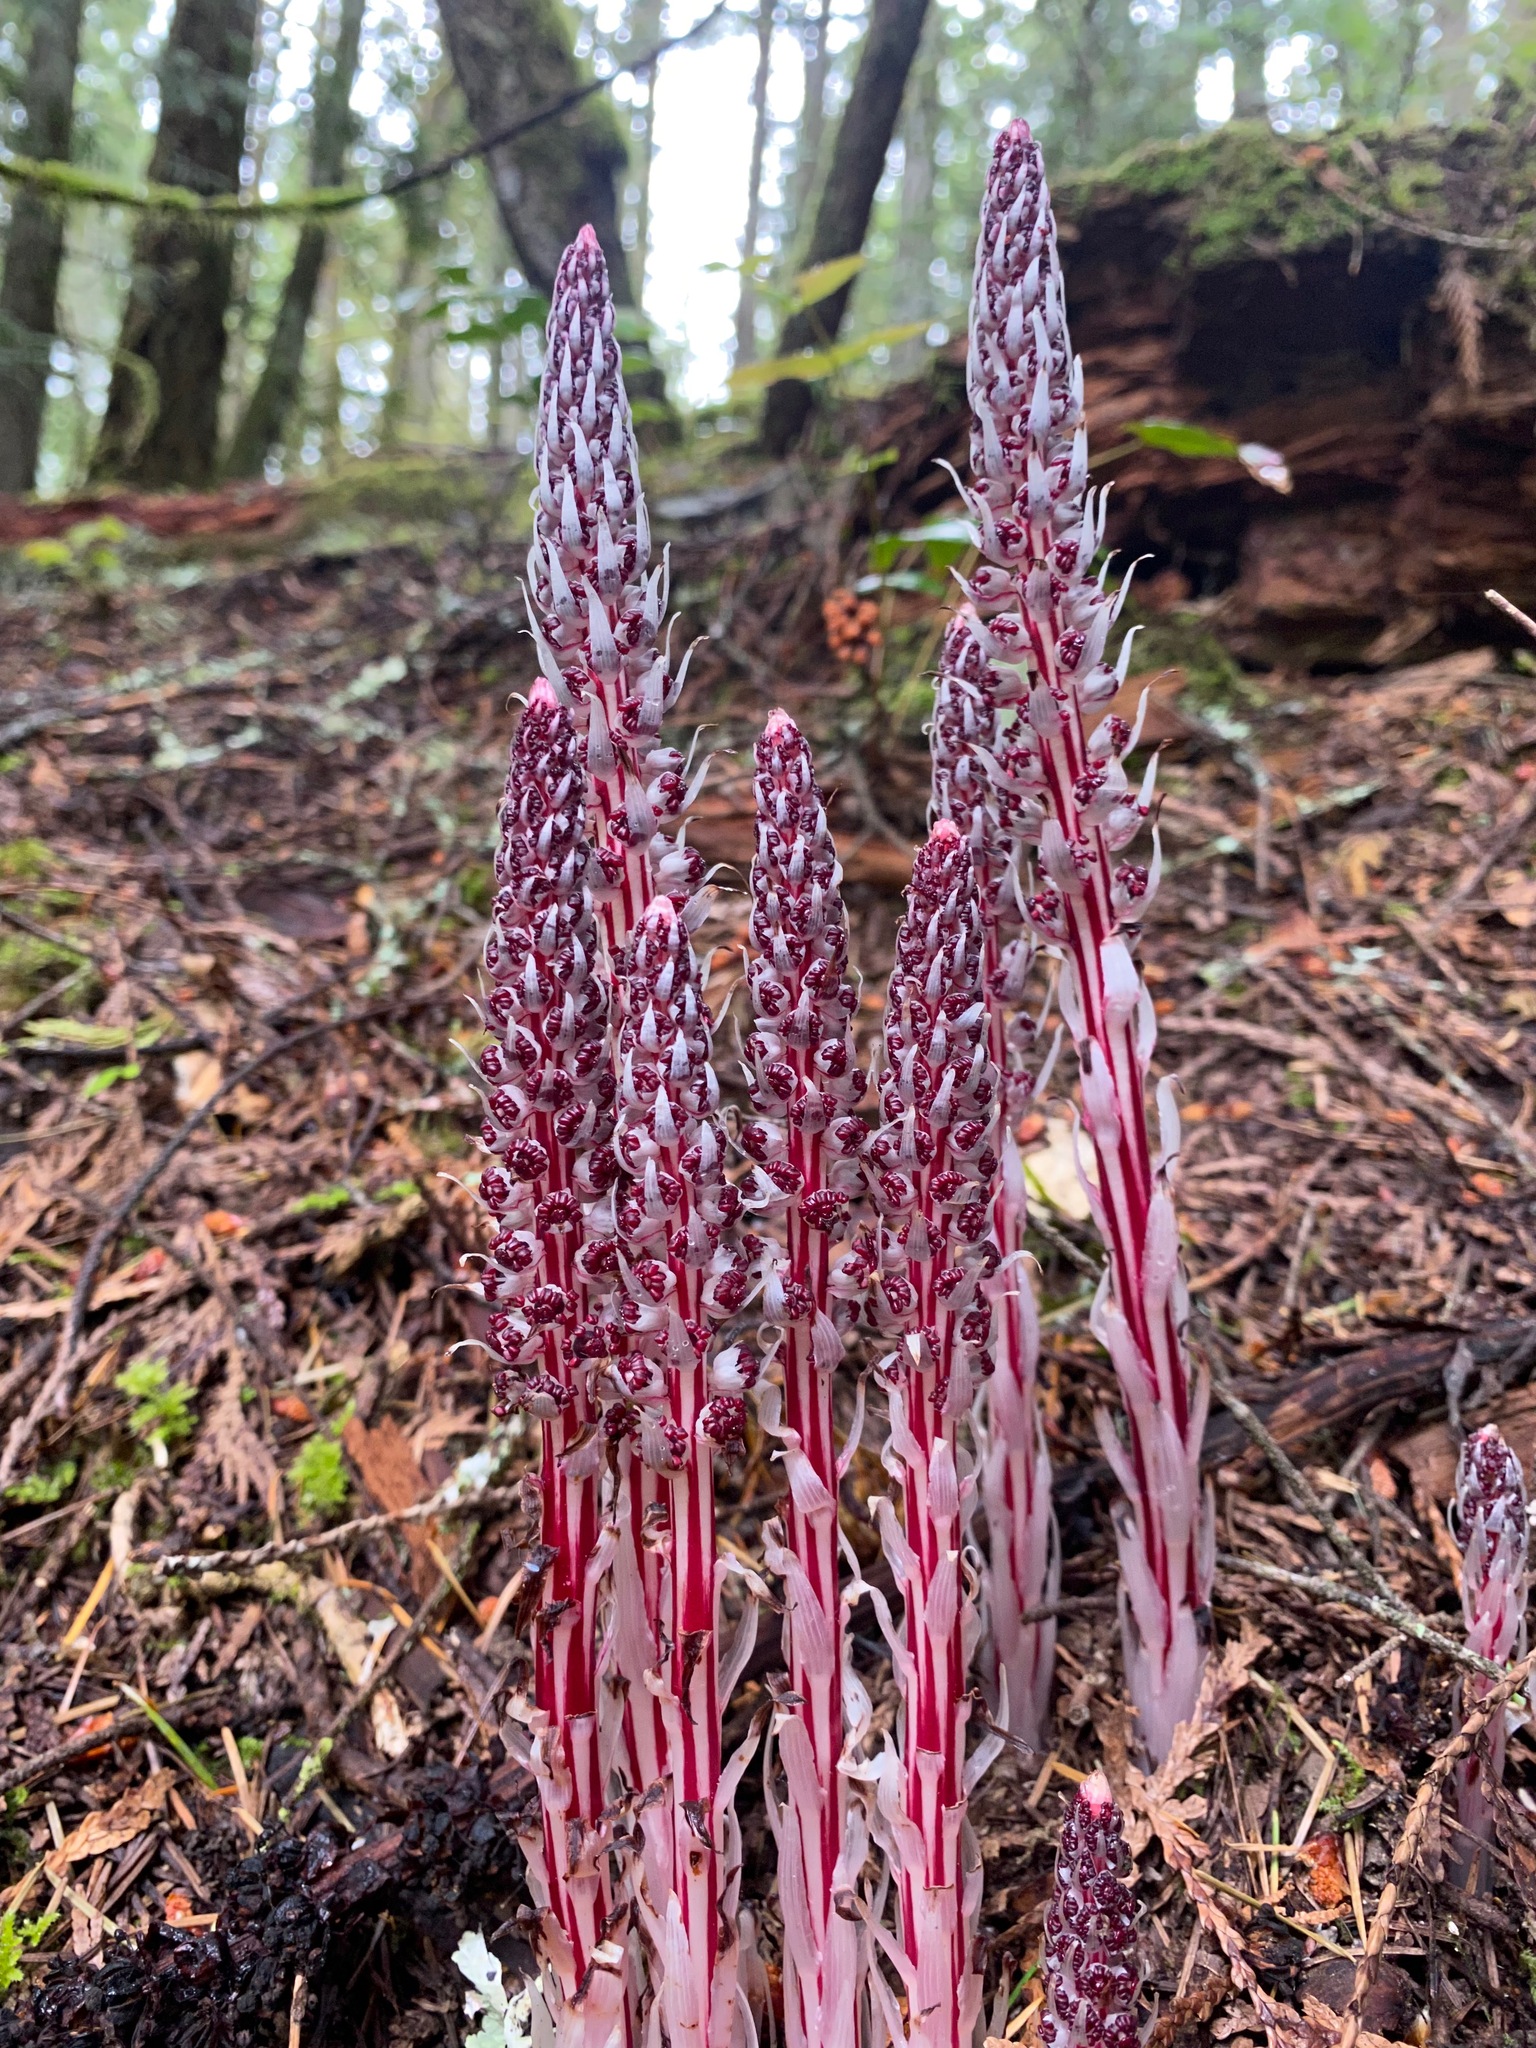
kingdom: Plantae
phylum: Tracheophyta
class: Magnoliopsida
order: Ericales
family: Ericaceae
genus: Allotropa
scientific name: Allotropa virgata
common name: Candy-striped allotropa
